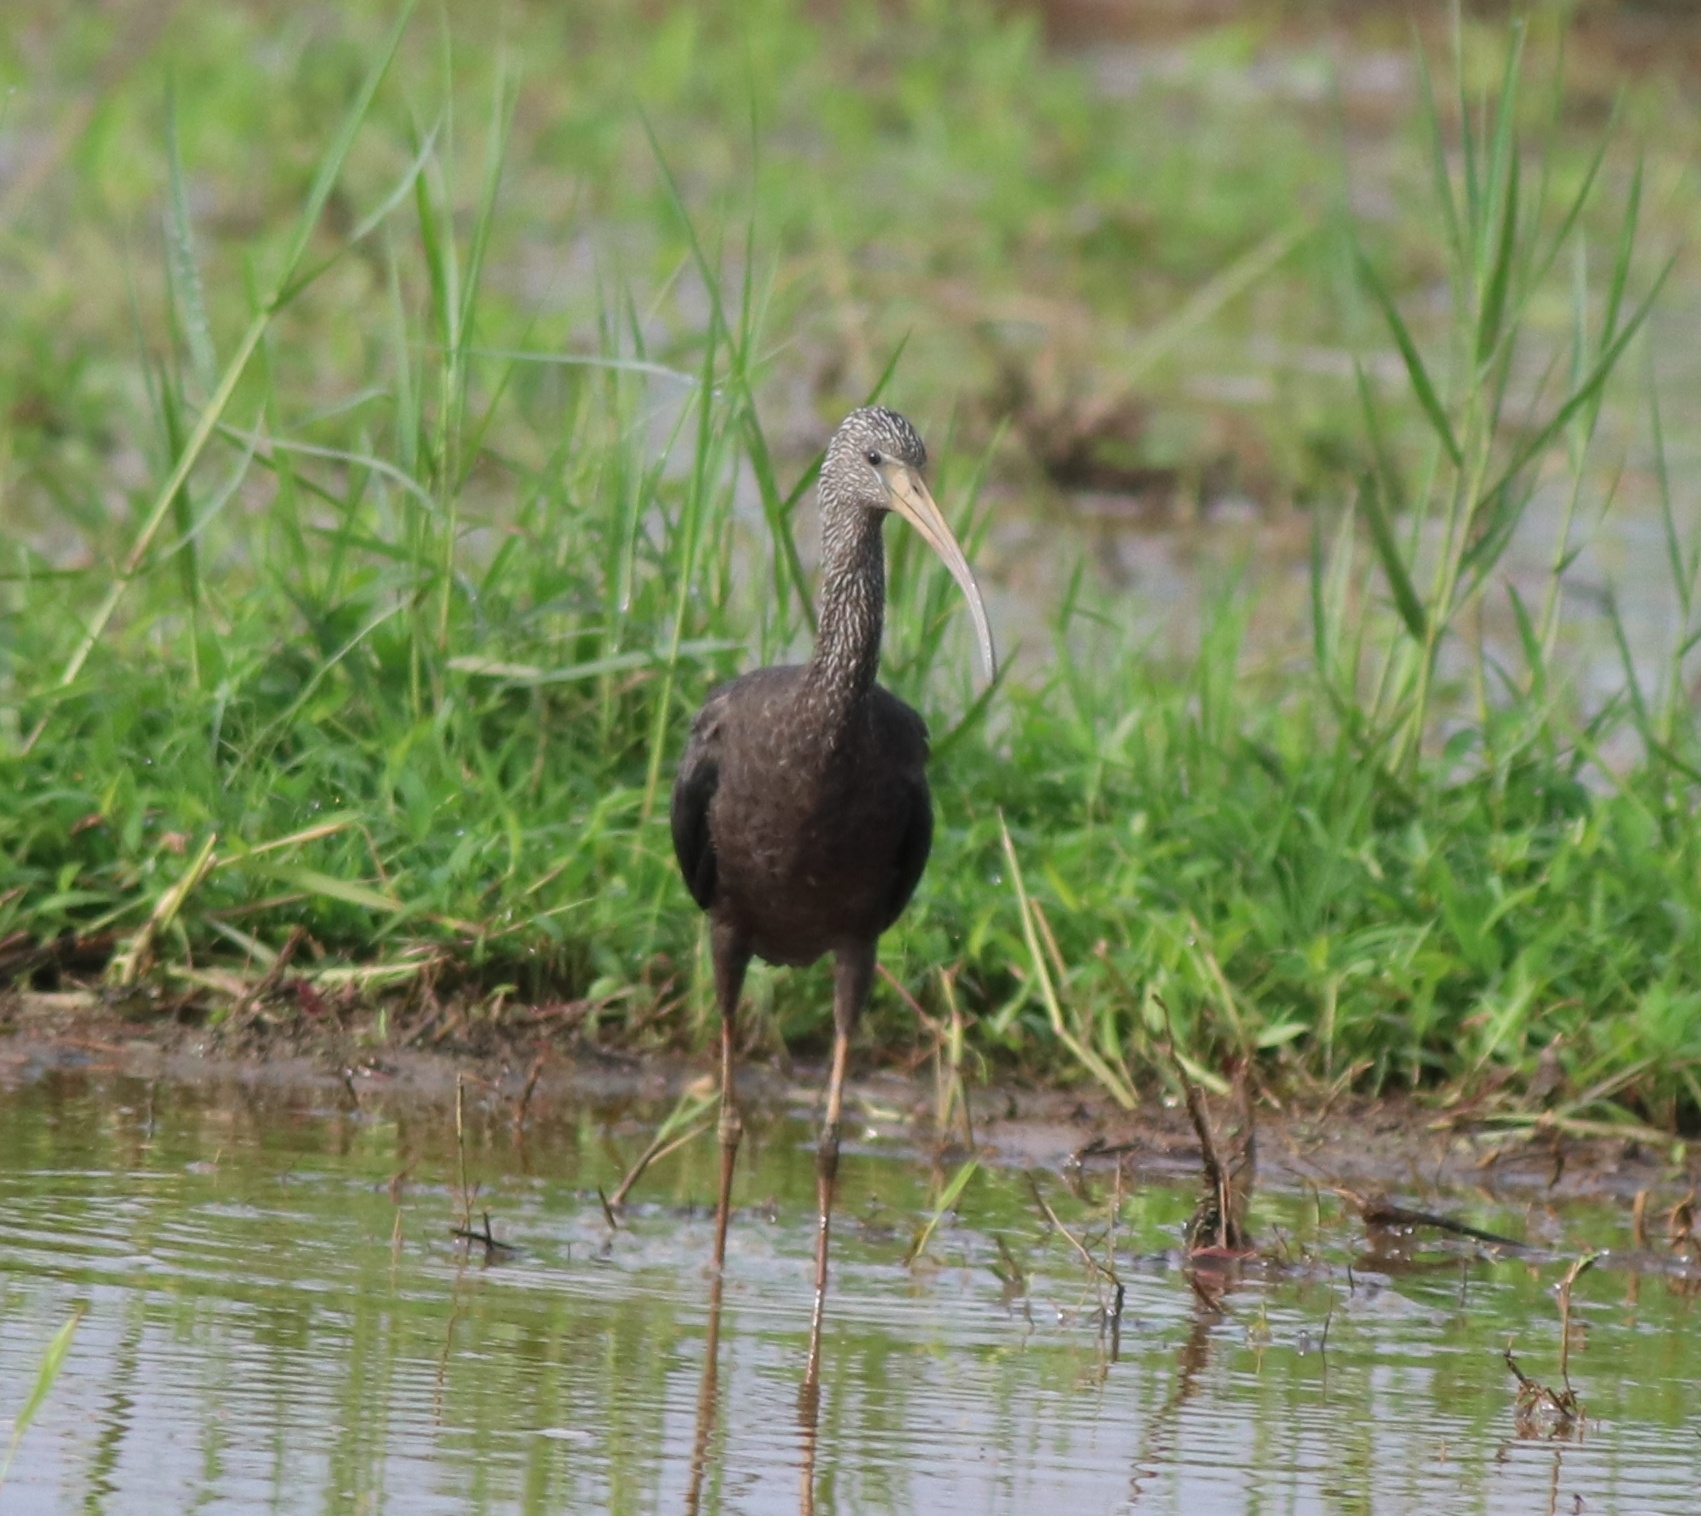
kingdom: Animalia
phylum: Chordata
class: Aves
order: Pelecaniformes
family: Threskiornithidae
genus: Plegadis
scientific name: Plegadis falcinellus
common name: Glossy ibis
